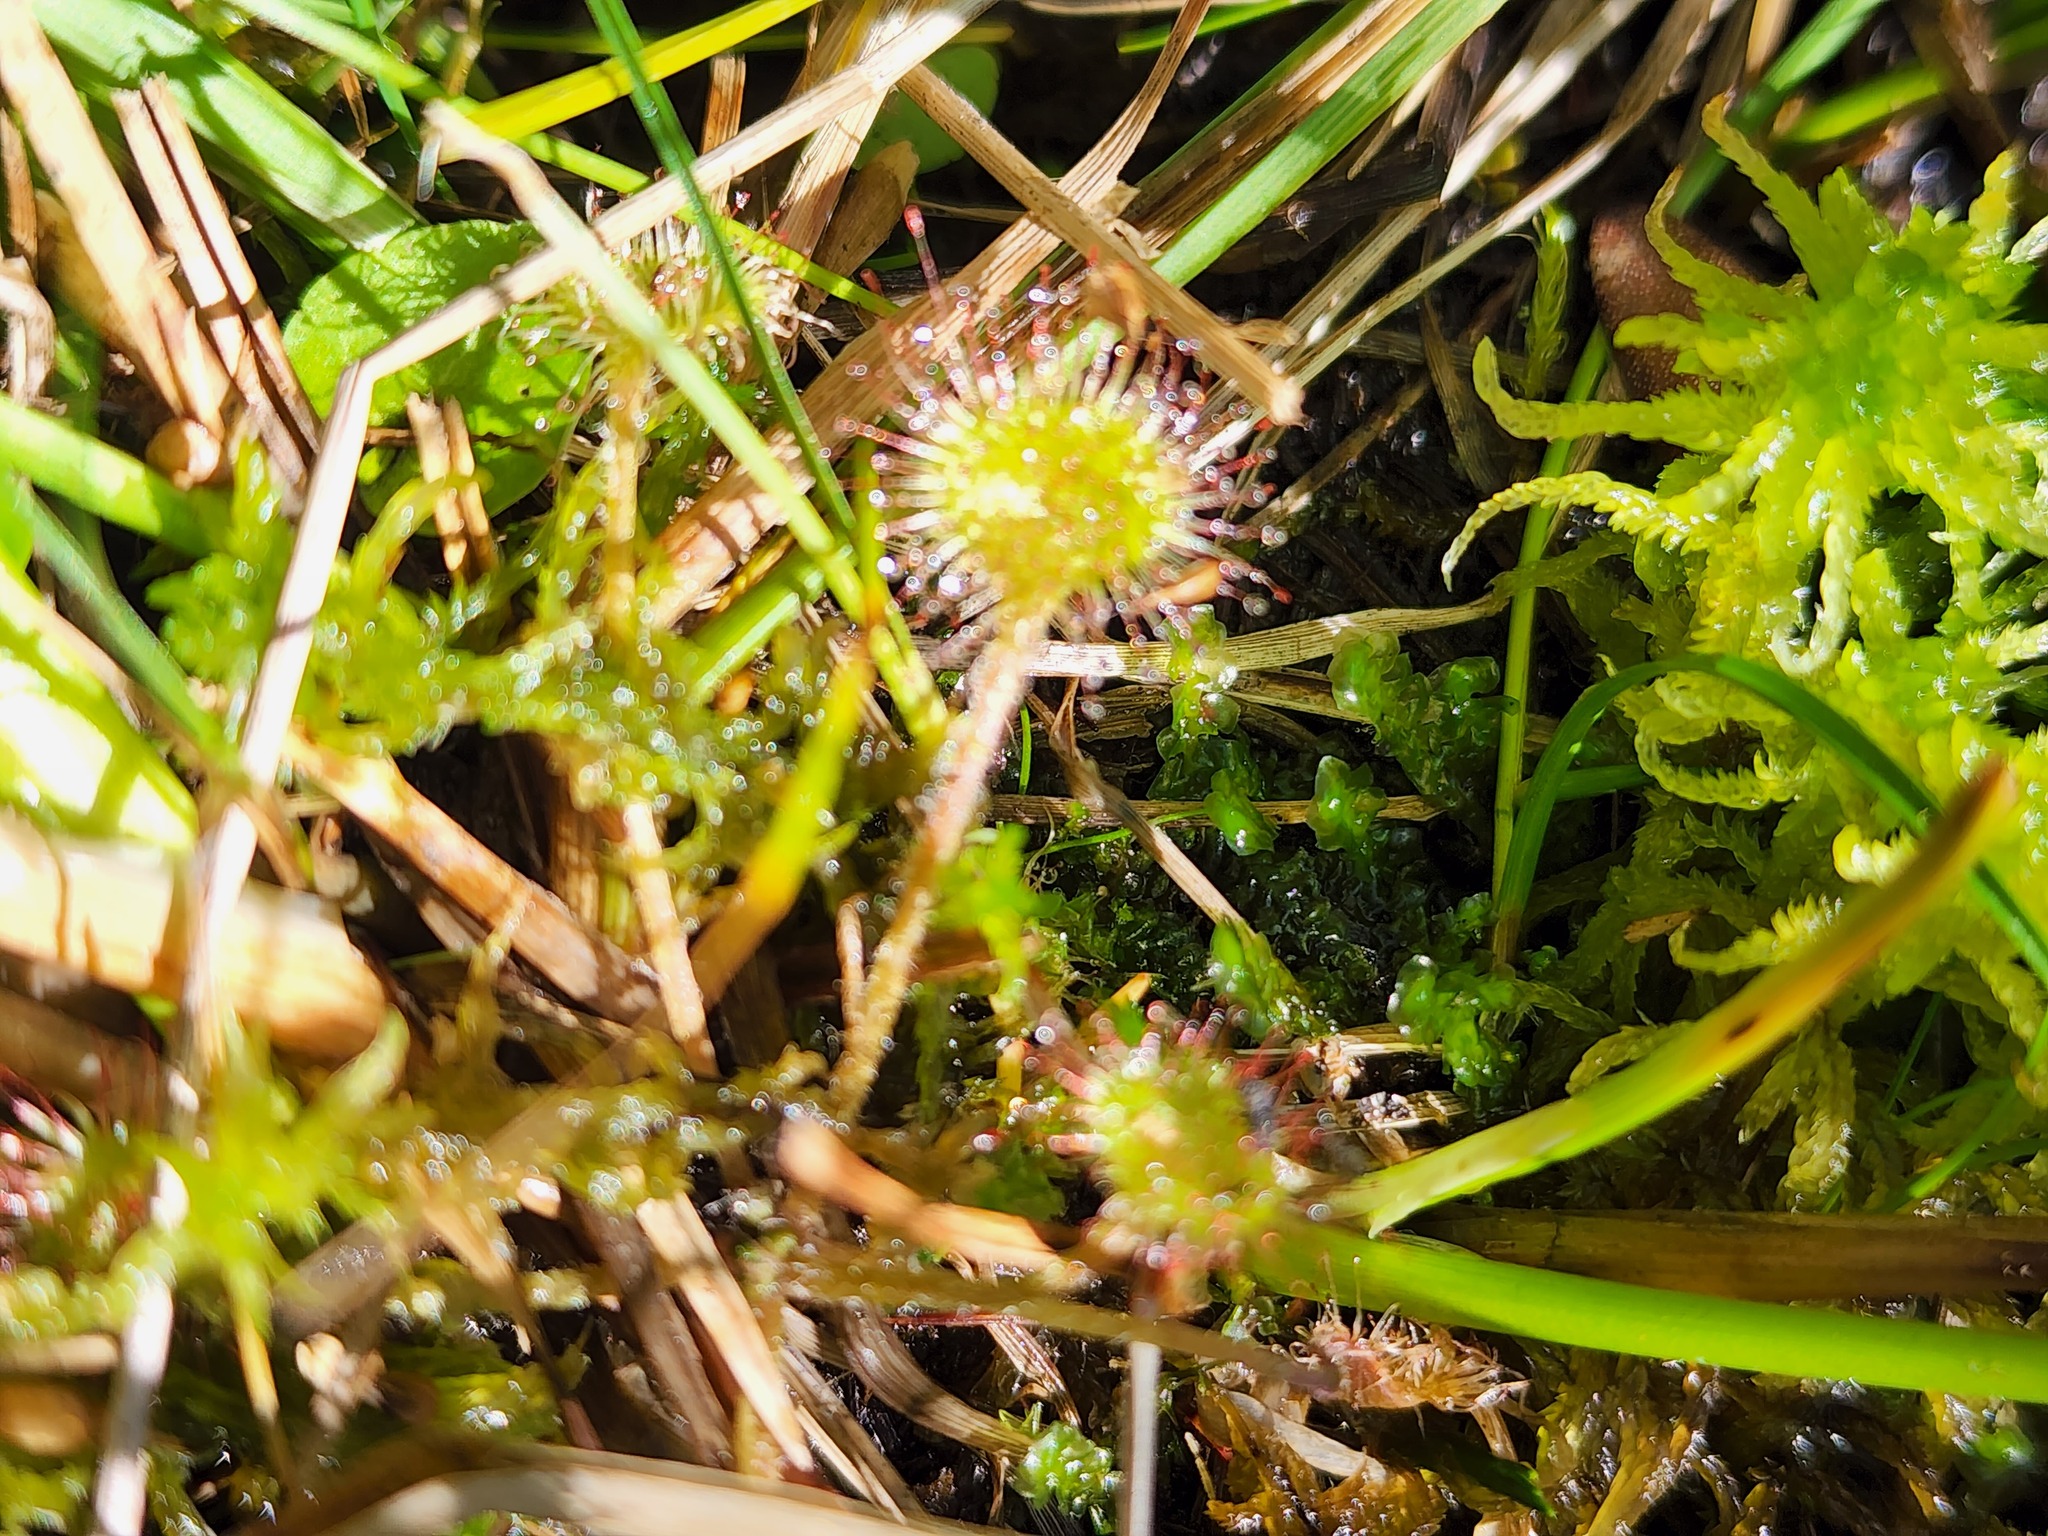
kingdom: Plantae
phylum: Tracheophyta
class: Magnoliopsida
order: Caryophyllales
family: Droseraceae
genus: Drosera
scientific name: Drosera rotundifolia
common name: Round-leaved sundew
